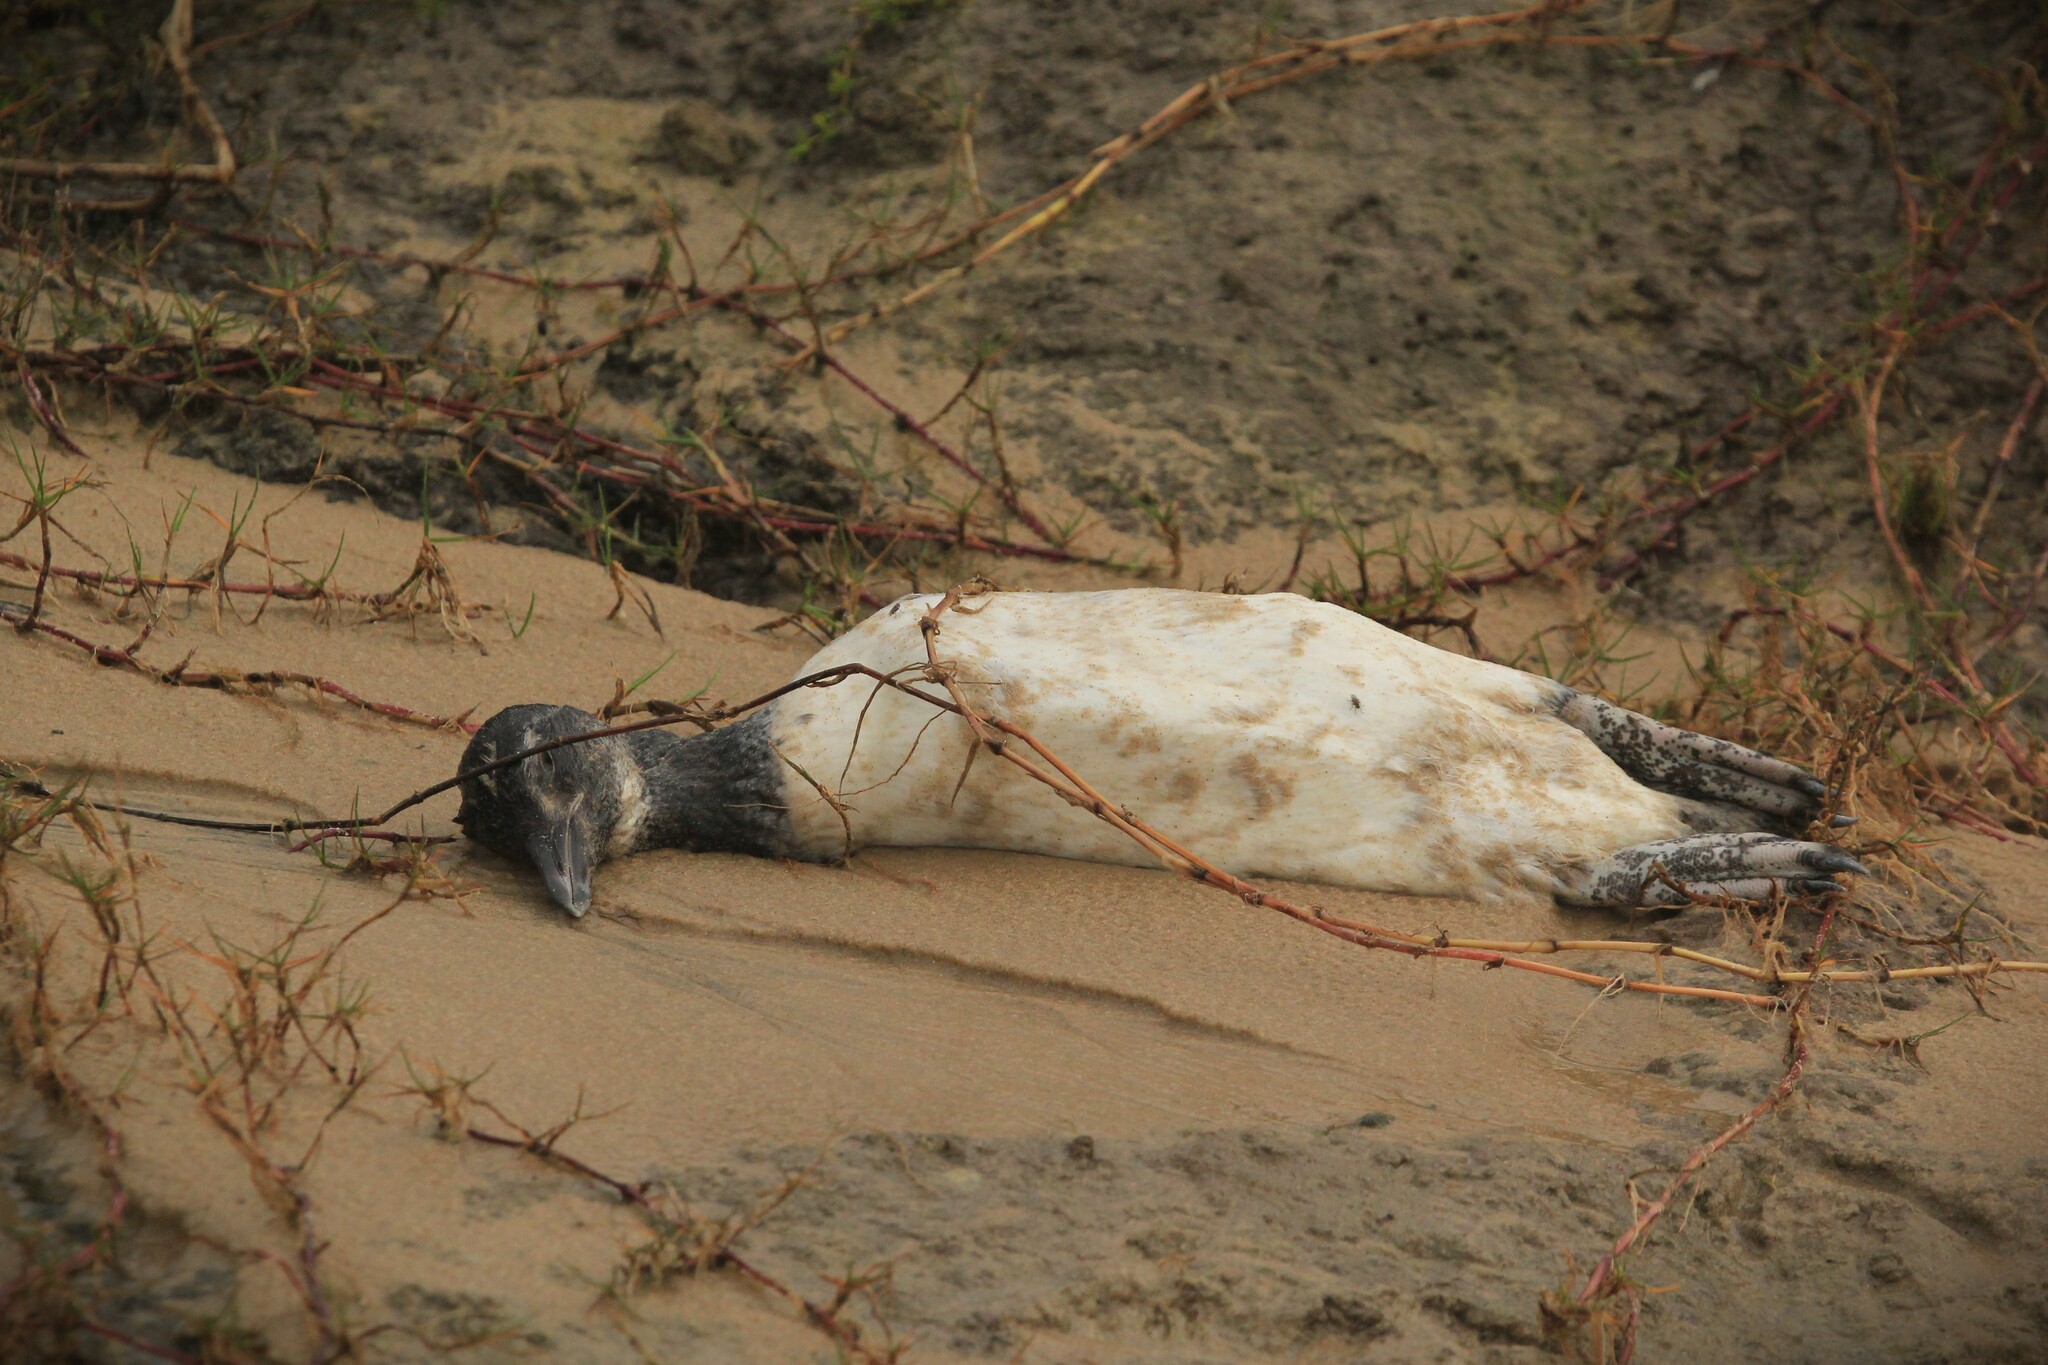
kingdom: Animalia
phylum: Chordata
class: Aves
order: Sphenisciformes
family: Spheniscidae
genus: Spheniscus
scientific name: Spheniscus magellanicus
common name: Magellanic penguin
